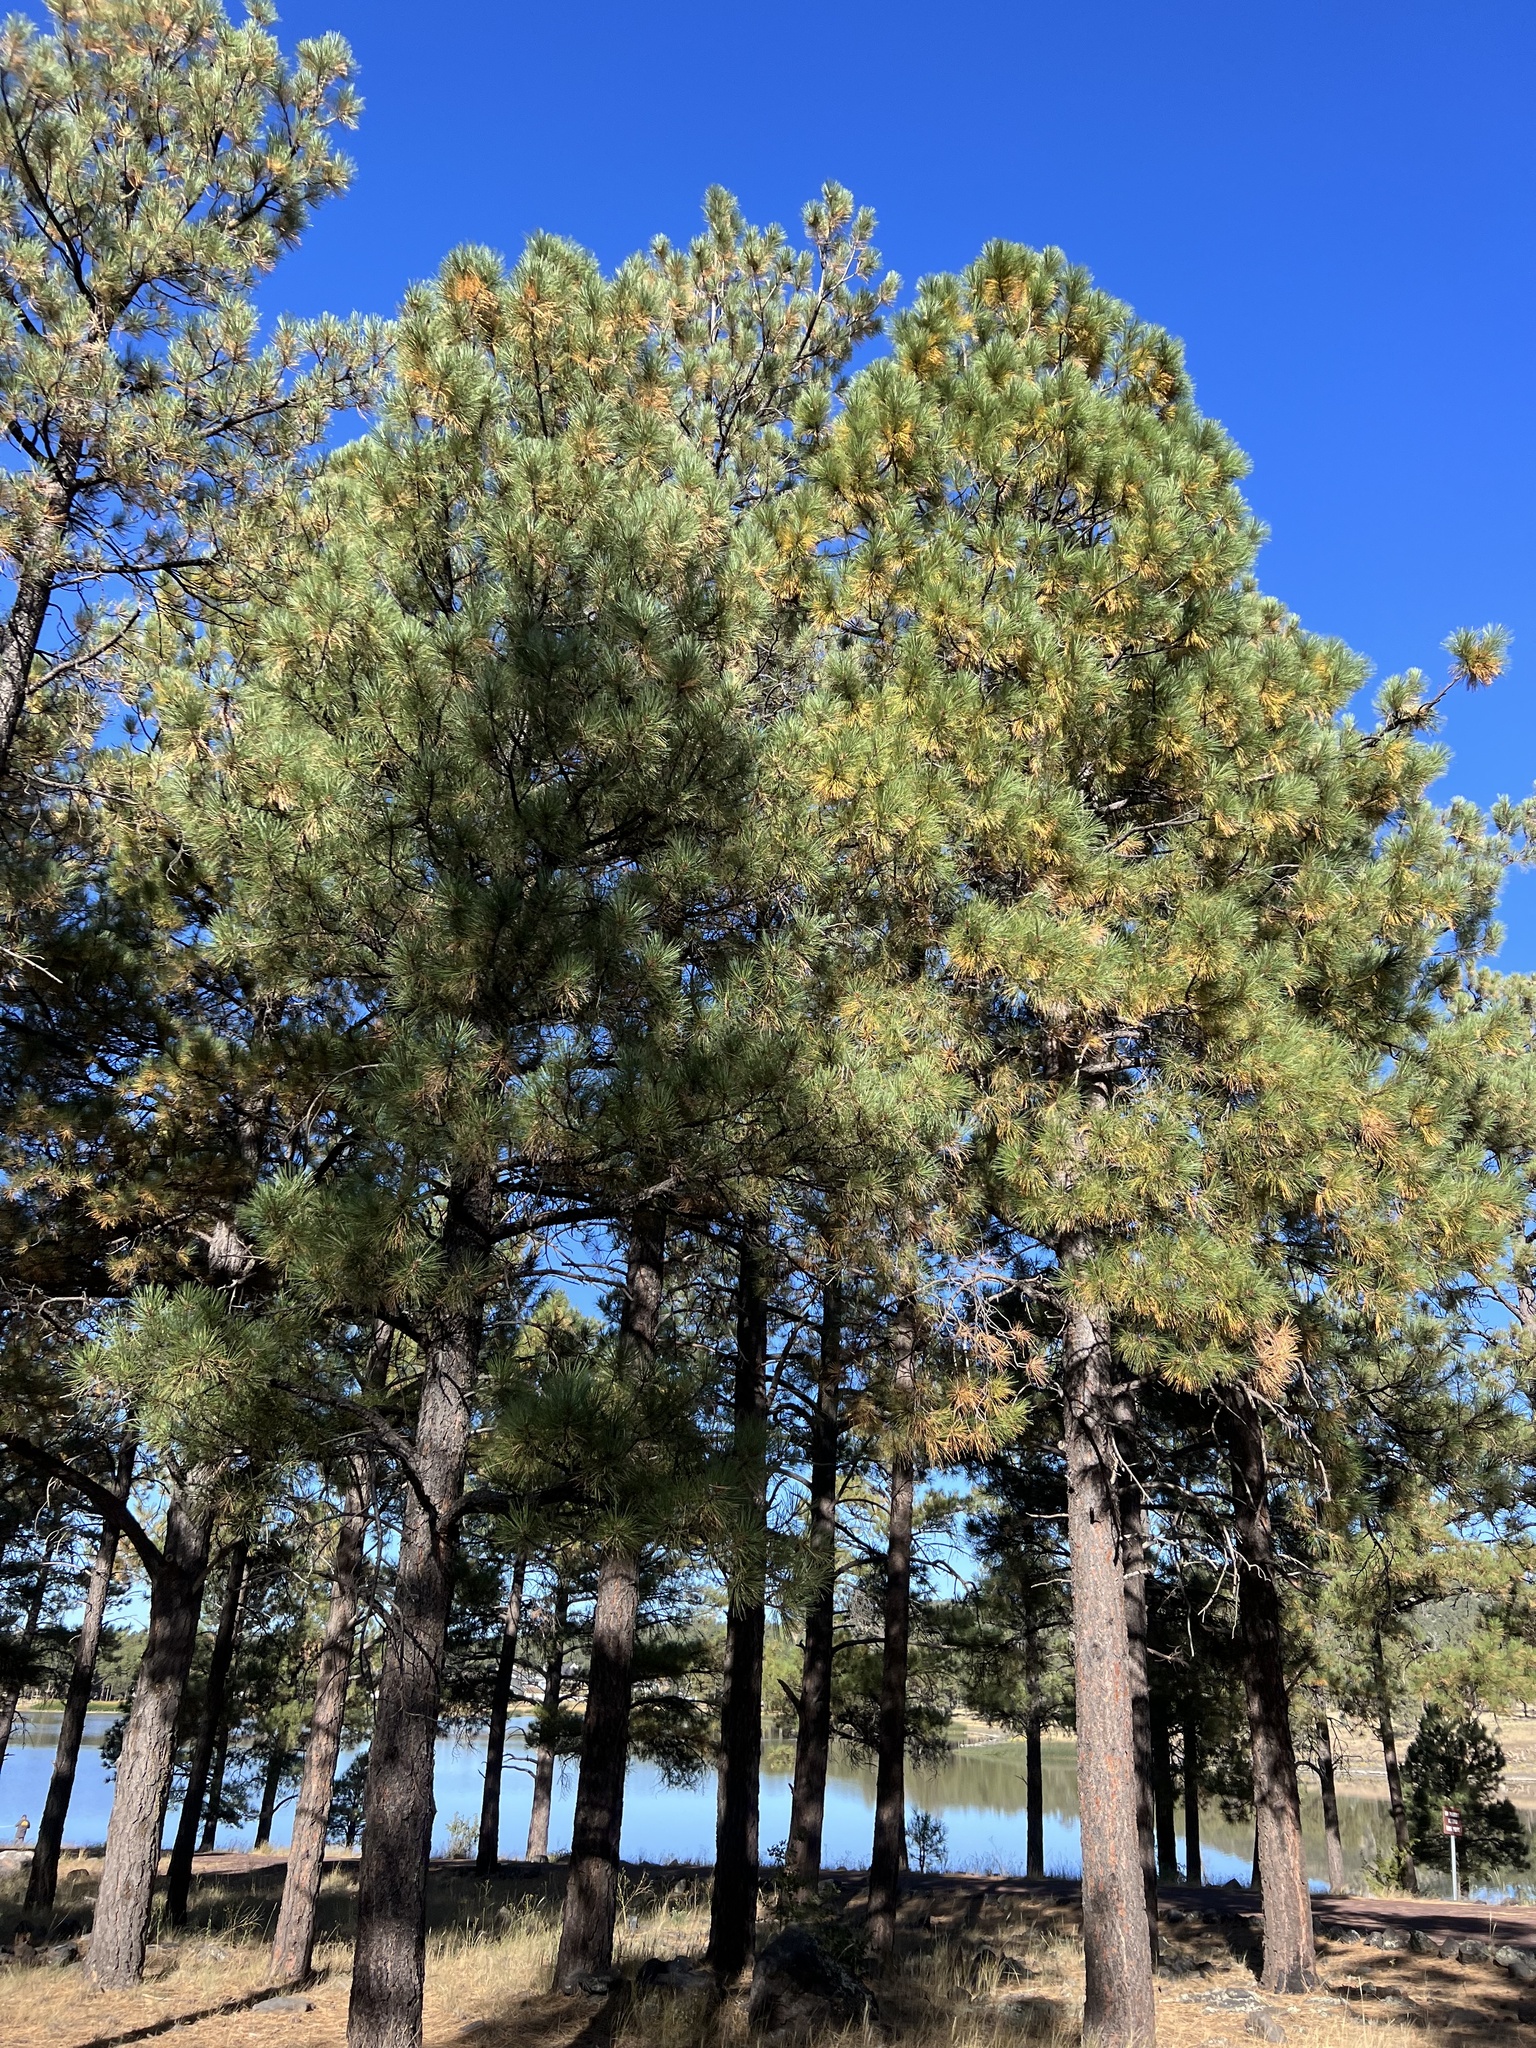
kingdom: Plantae
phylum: Tracheophyta
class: Pinopsida
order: Pinales
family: Pinaceae
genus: Pinus
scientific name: Pinus ponderosa
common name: Western yellow-pine
